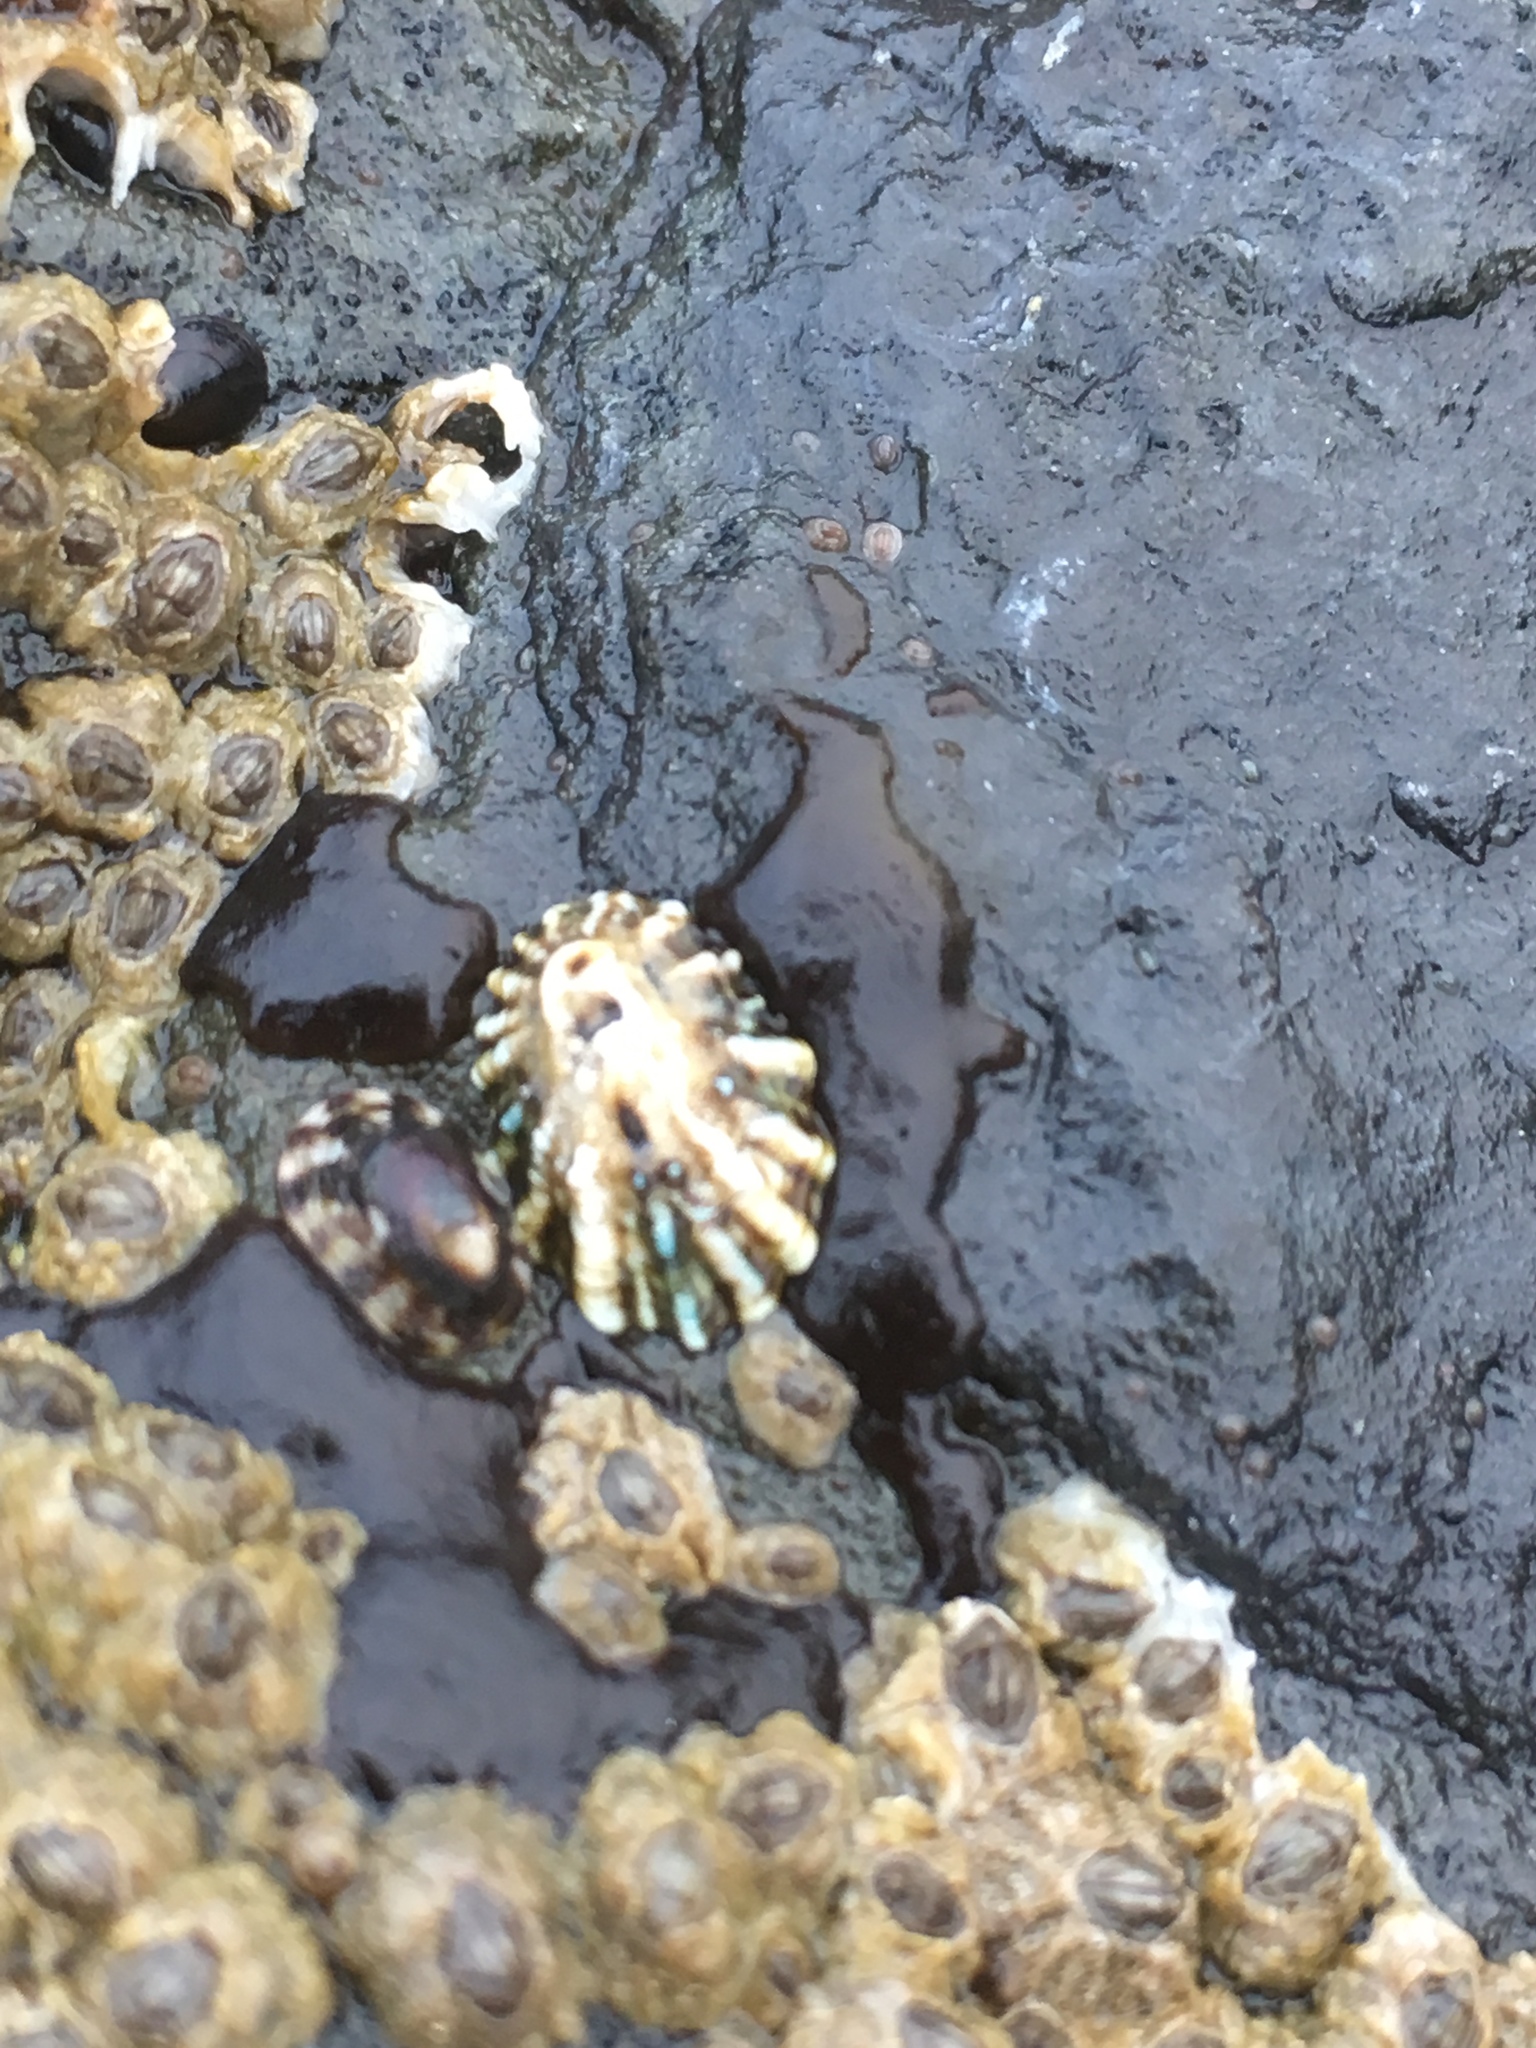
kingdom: Animalia
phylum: Mollusca
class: Gastropoda
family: Lottiidae
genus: Lottia
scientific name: Lottia scabra
